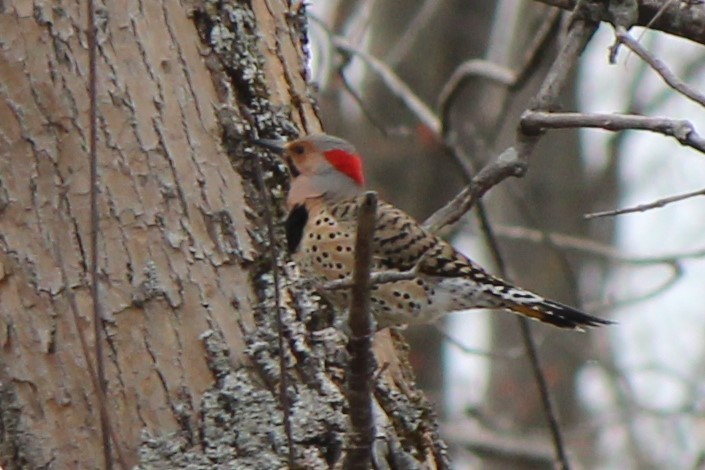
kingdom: Animalia
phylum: Chordata
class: Aves
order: Piciformes
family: Picidae
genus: Colaptes
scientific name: Colaptes auratus
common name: Northern flicker
